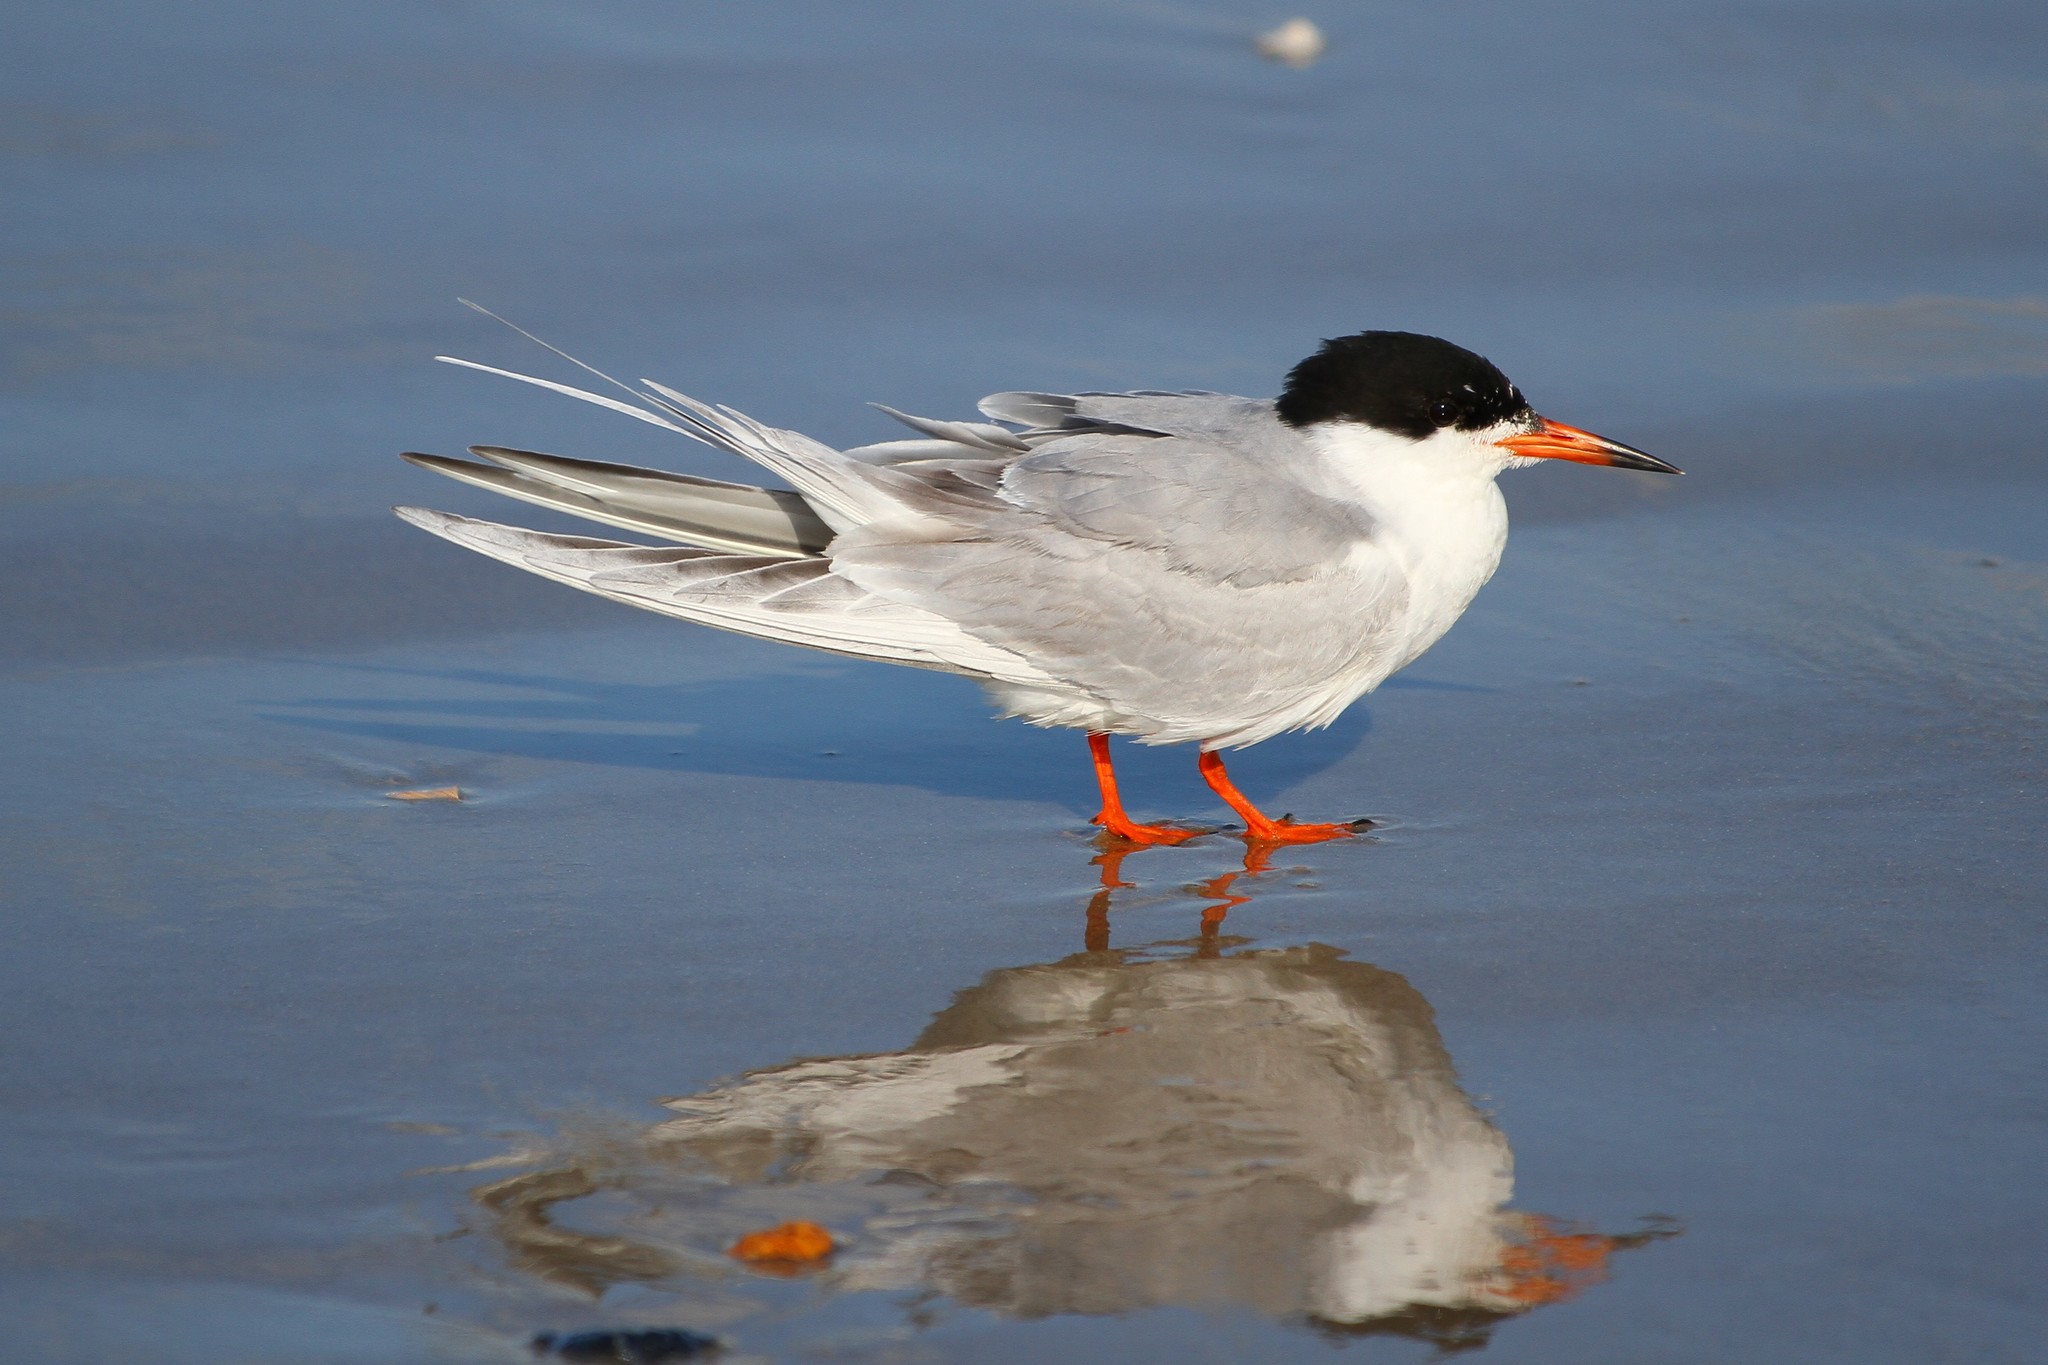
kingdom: Animalia
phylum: Chordata
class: Aves
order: Charadriiformes
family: Laridae
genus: Sterna
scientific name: Sterna forsteri
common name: Forster's tern
